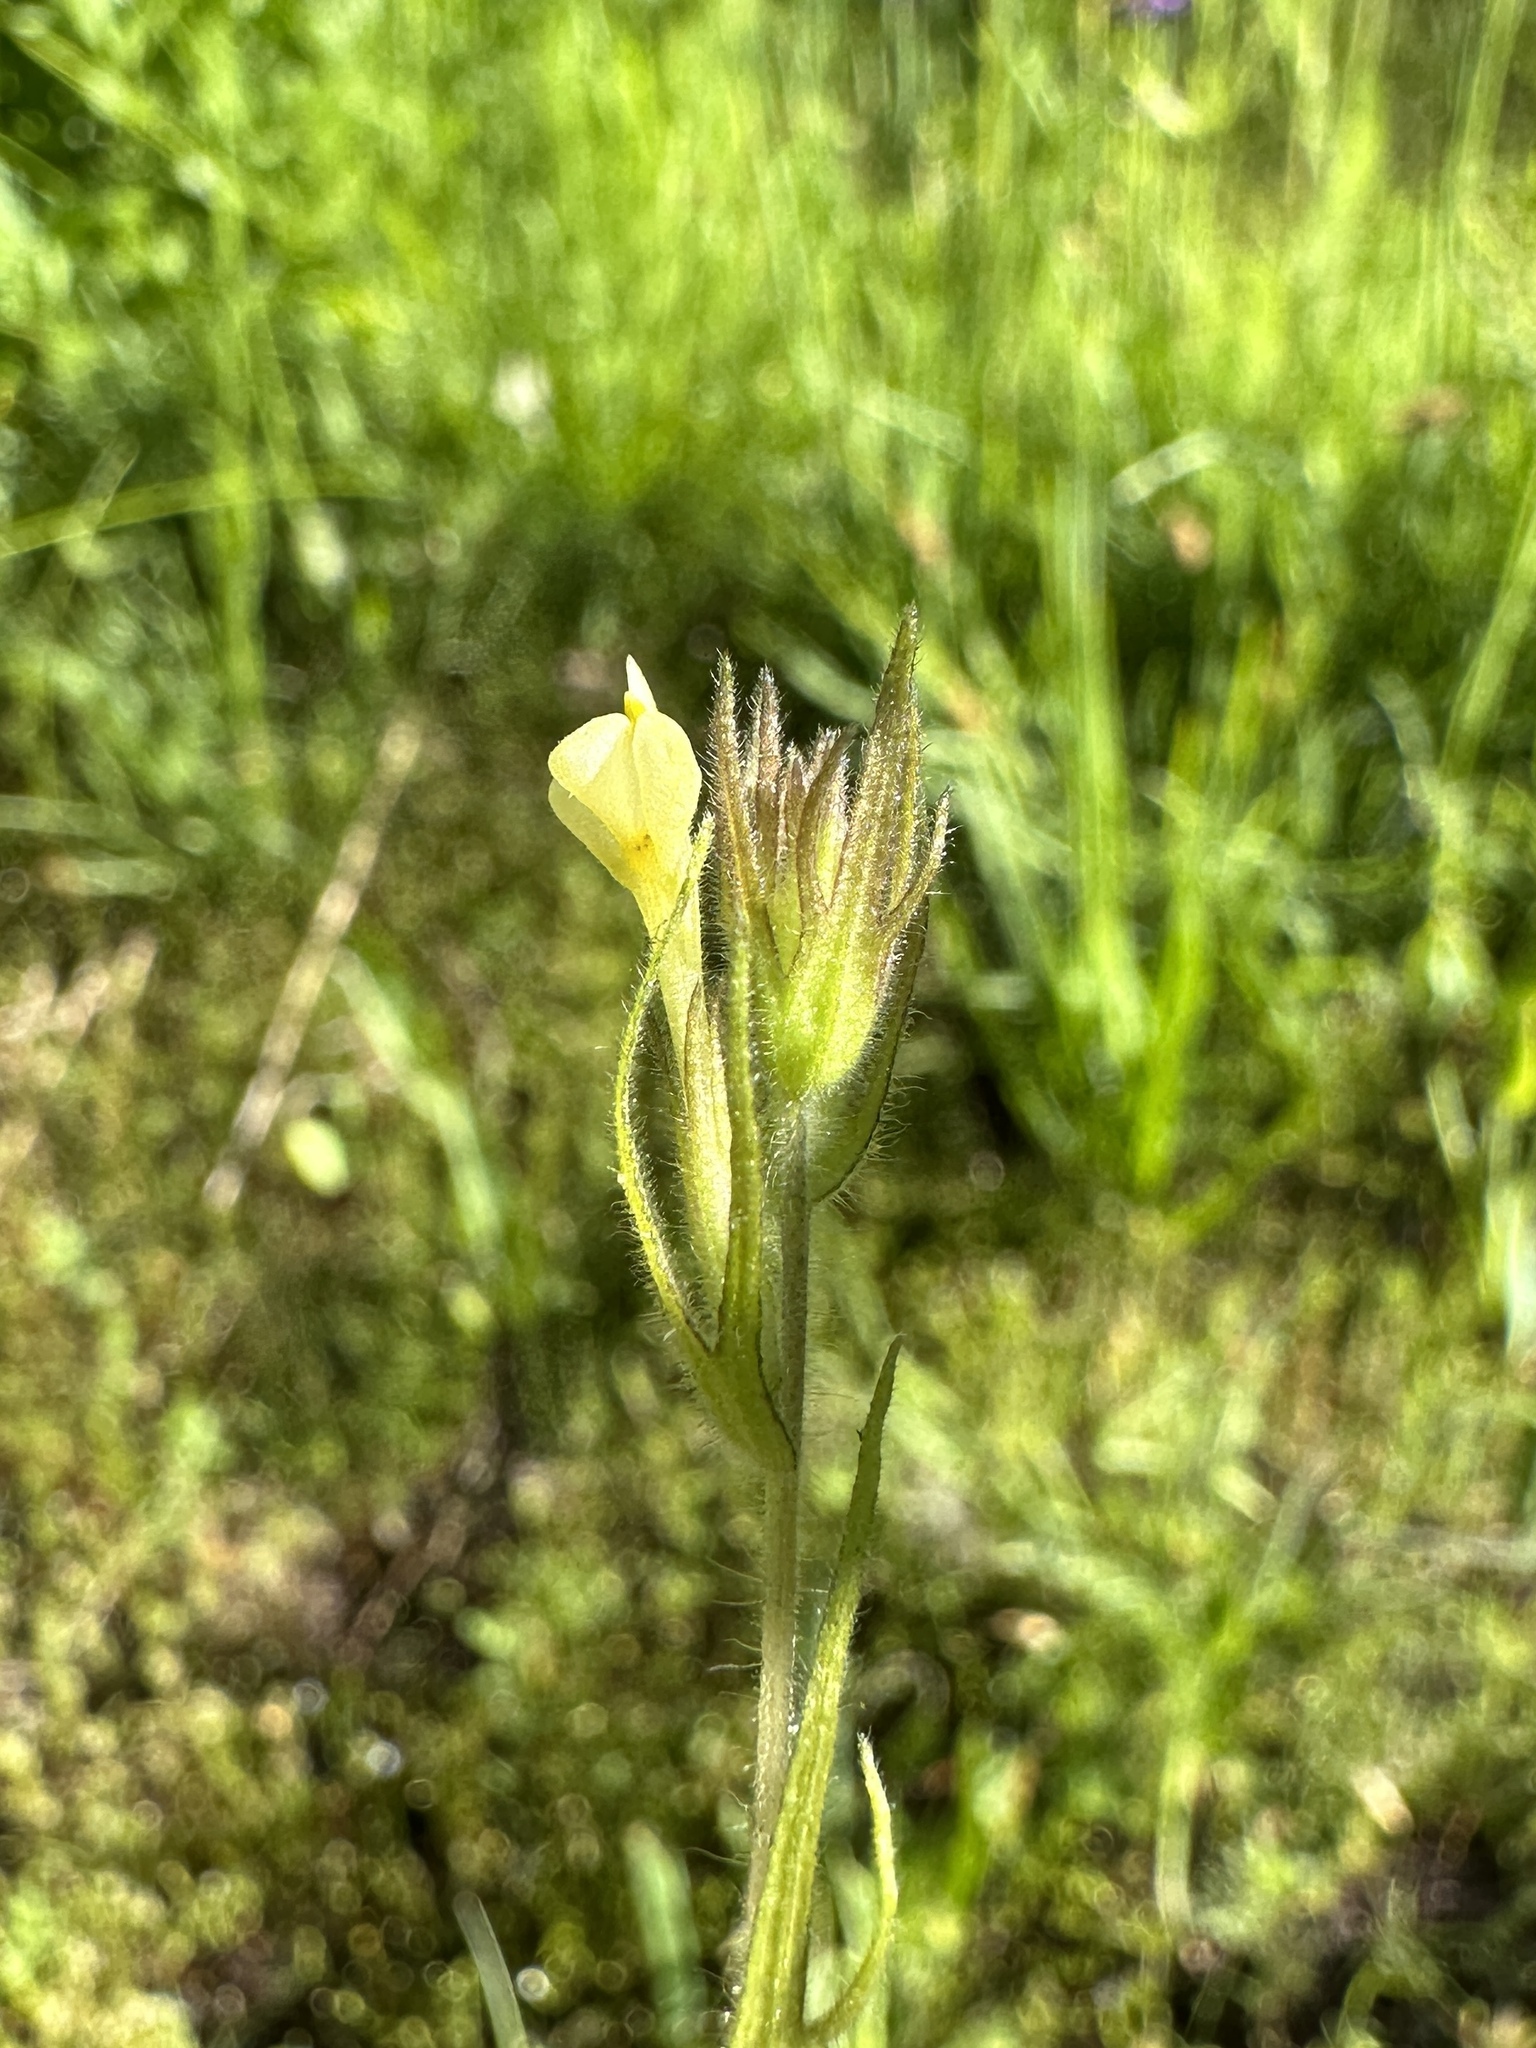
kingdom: Plantae
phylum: Tracheophyta
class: Magnoliopsida
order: Lamiales
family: Orobanchaceae
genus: Castilleja
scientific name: Castilleja tenuis
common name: Hairy indian paintbrush
